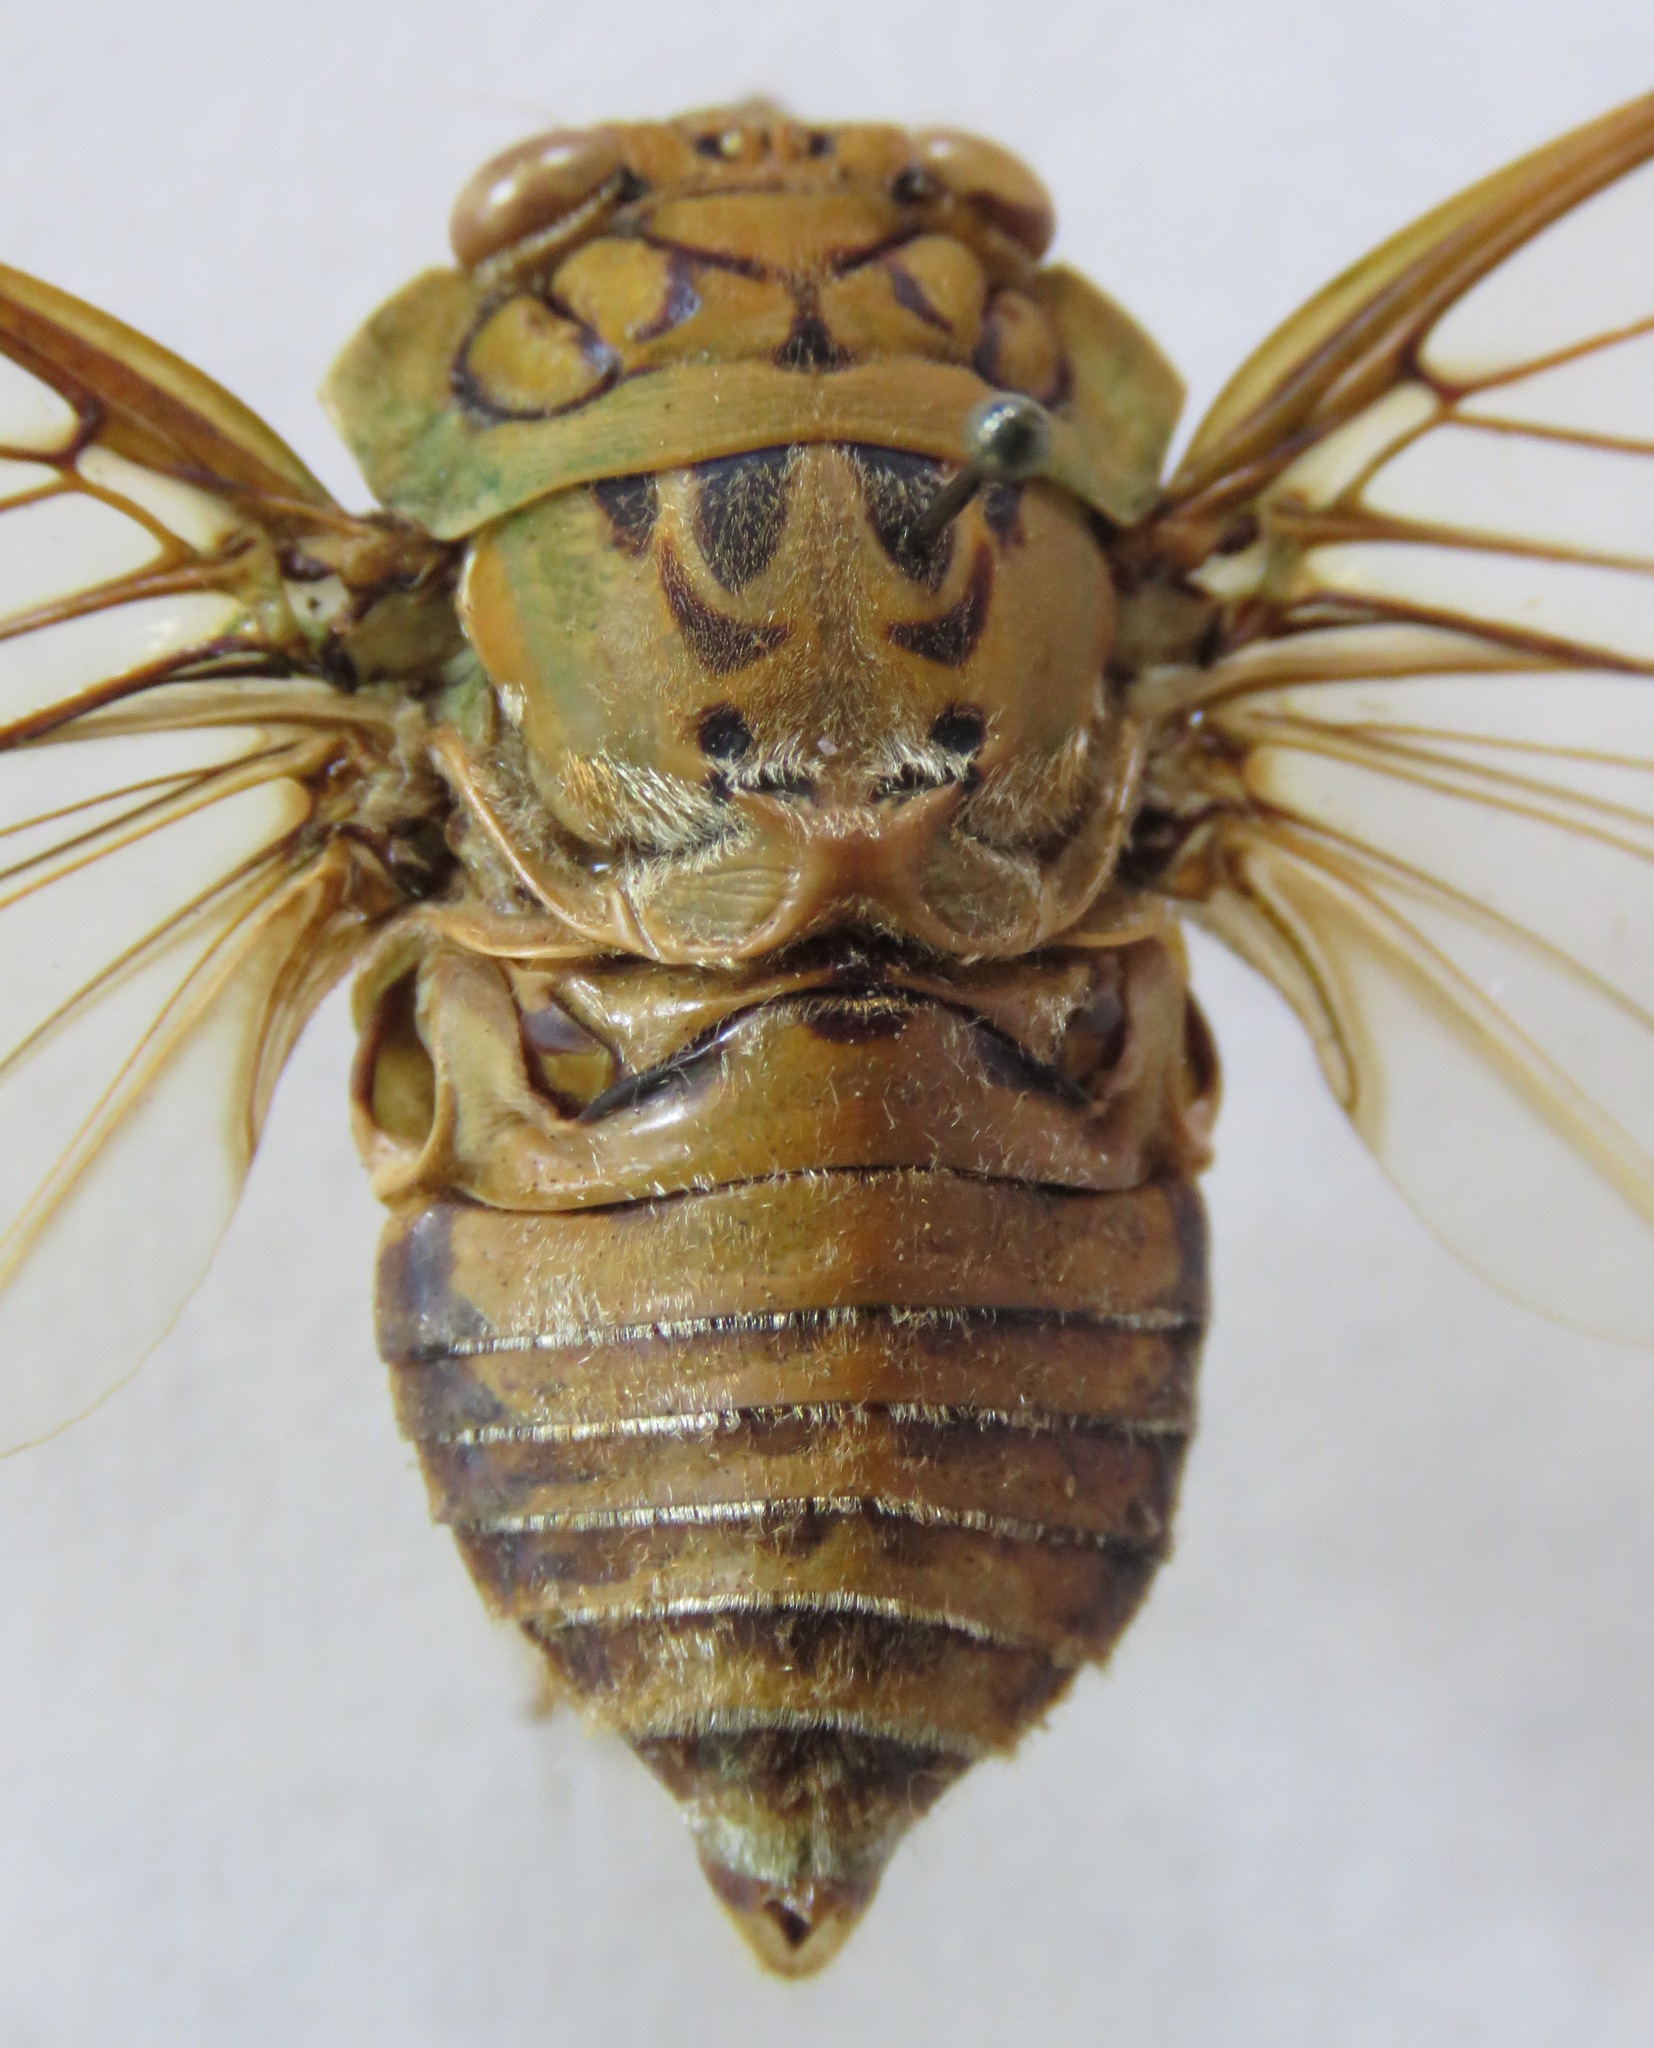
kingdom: Animalia
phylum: Arthropoda
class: Insecta
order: Hemiptera
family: Cicadidae
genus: Miranha
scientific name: Miranha imbellis
